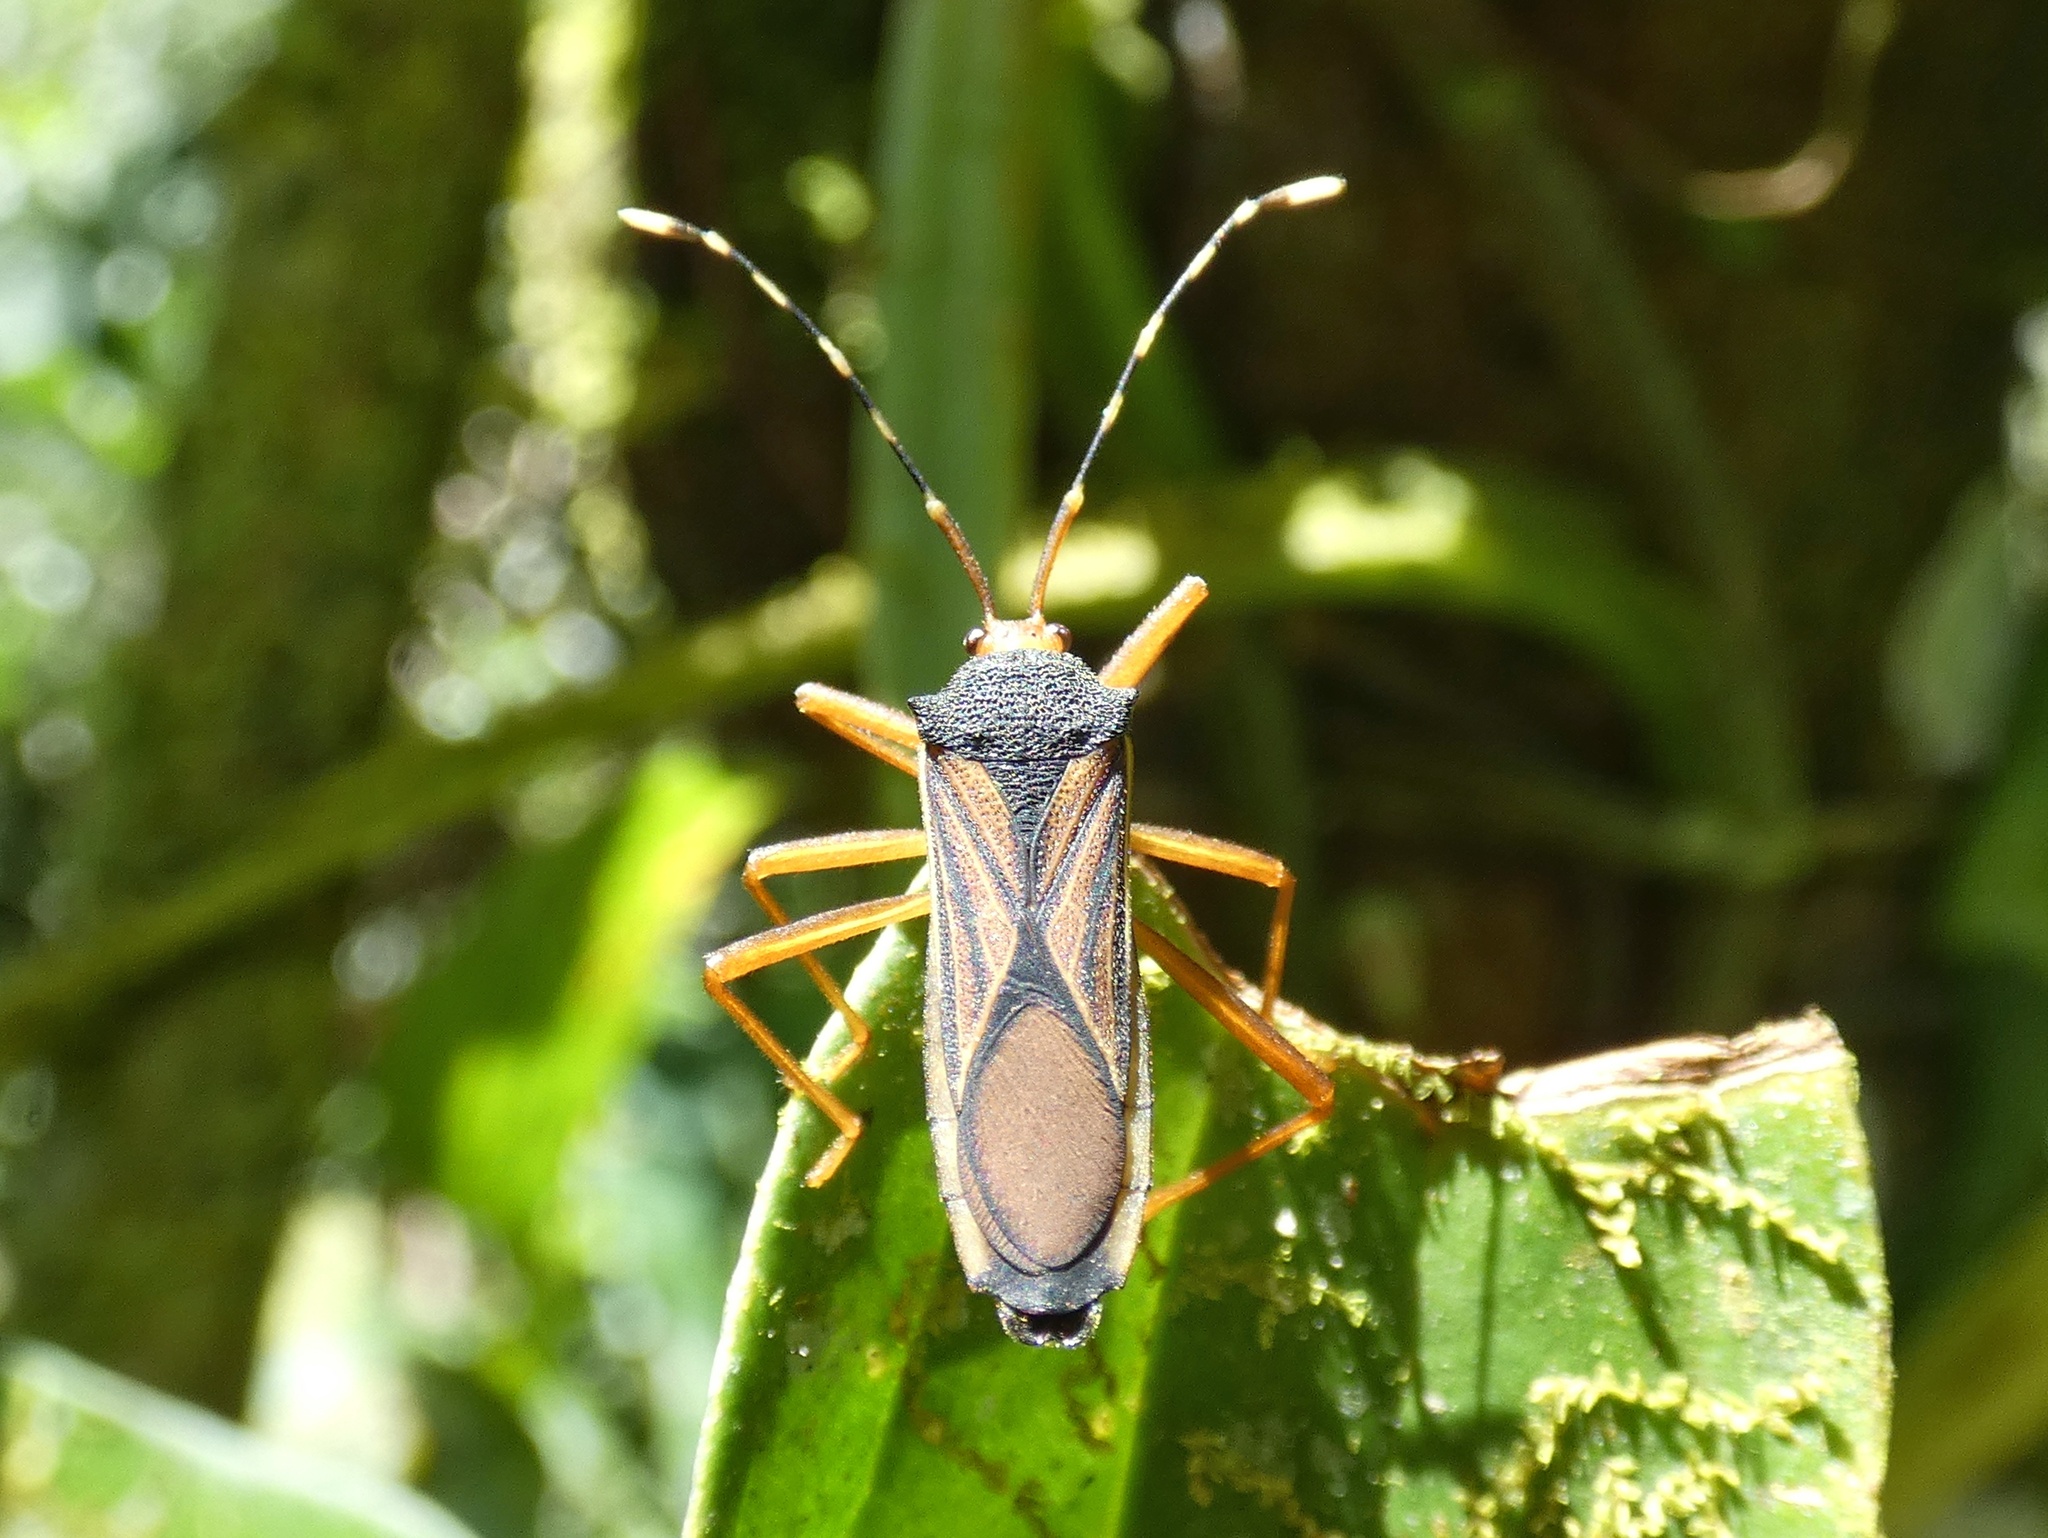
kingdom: Animalia
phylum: Arthropoda
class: Insecta
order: Hemiptera
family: Coreidae
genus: Anasa
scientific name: Anasa nigricollis
